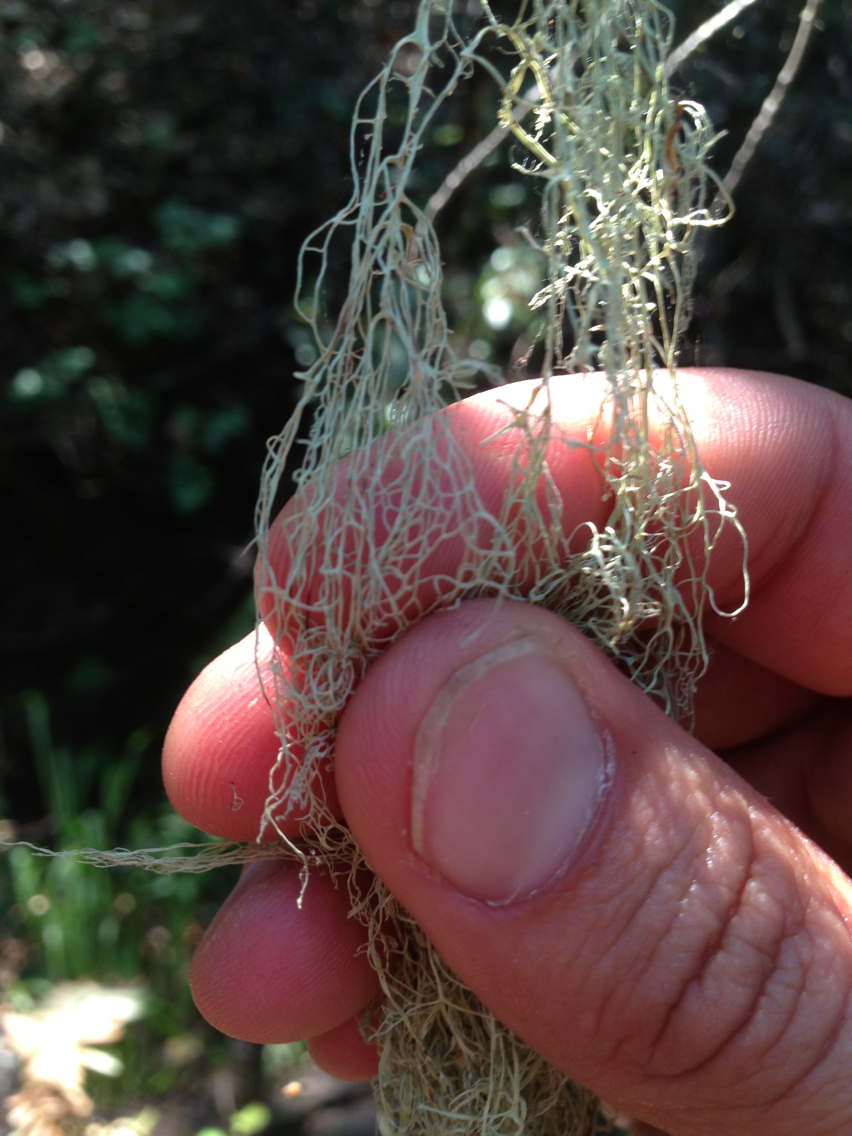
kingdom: Fungi
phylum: Ascomycota
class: Lecanoromycetes
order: Lecanorales
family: Ramalinaceae
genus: Ramalina
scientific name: Ramalina menziesii
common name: Lace lichen
